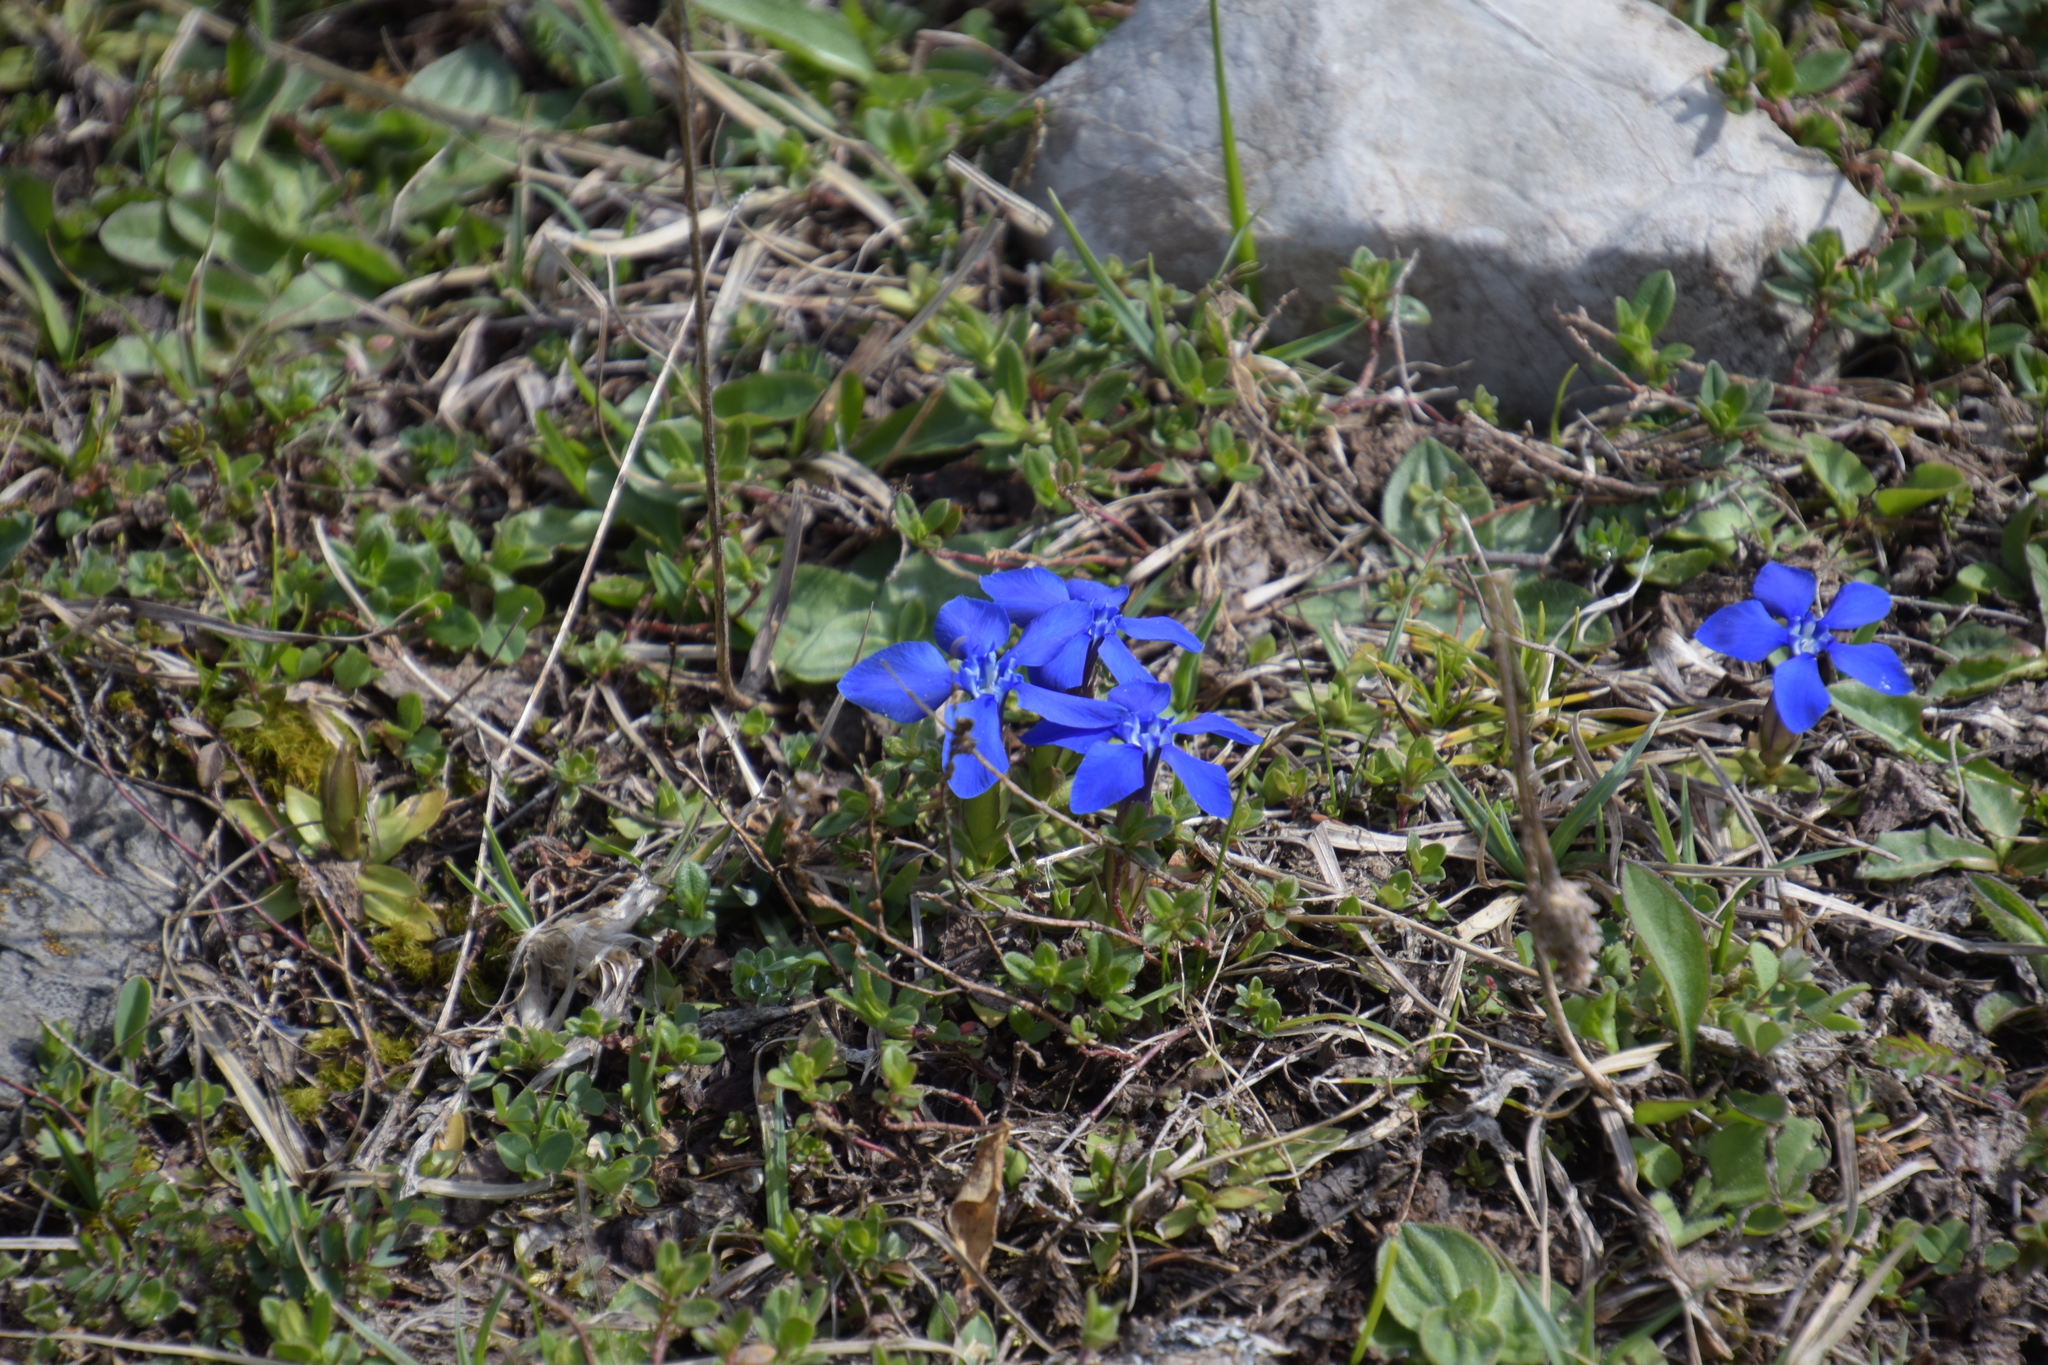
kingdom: Plantae
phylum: Tracheophyta
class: Magnoliopsida
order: Gentianales
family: Gentianaceae
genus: Gentiana
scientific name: Gentiana verna
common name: Spring gentian
